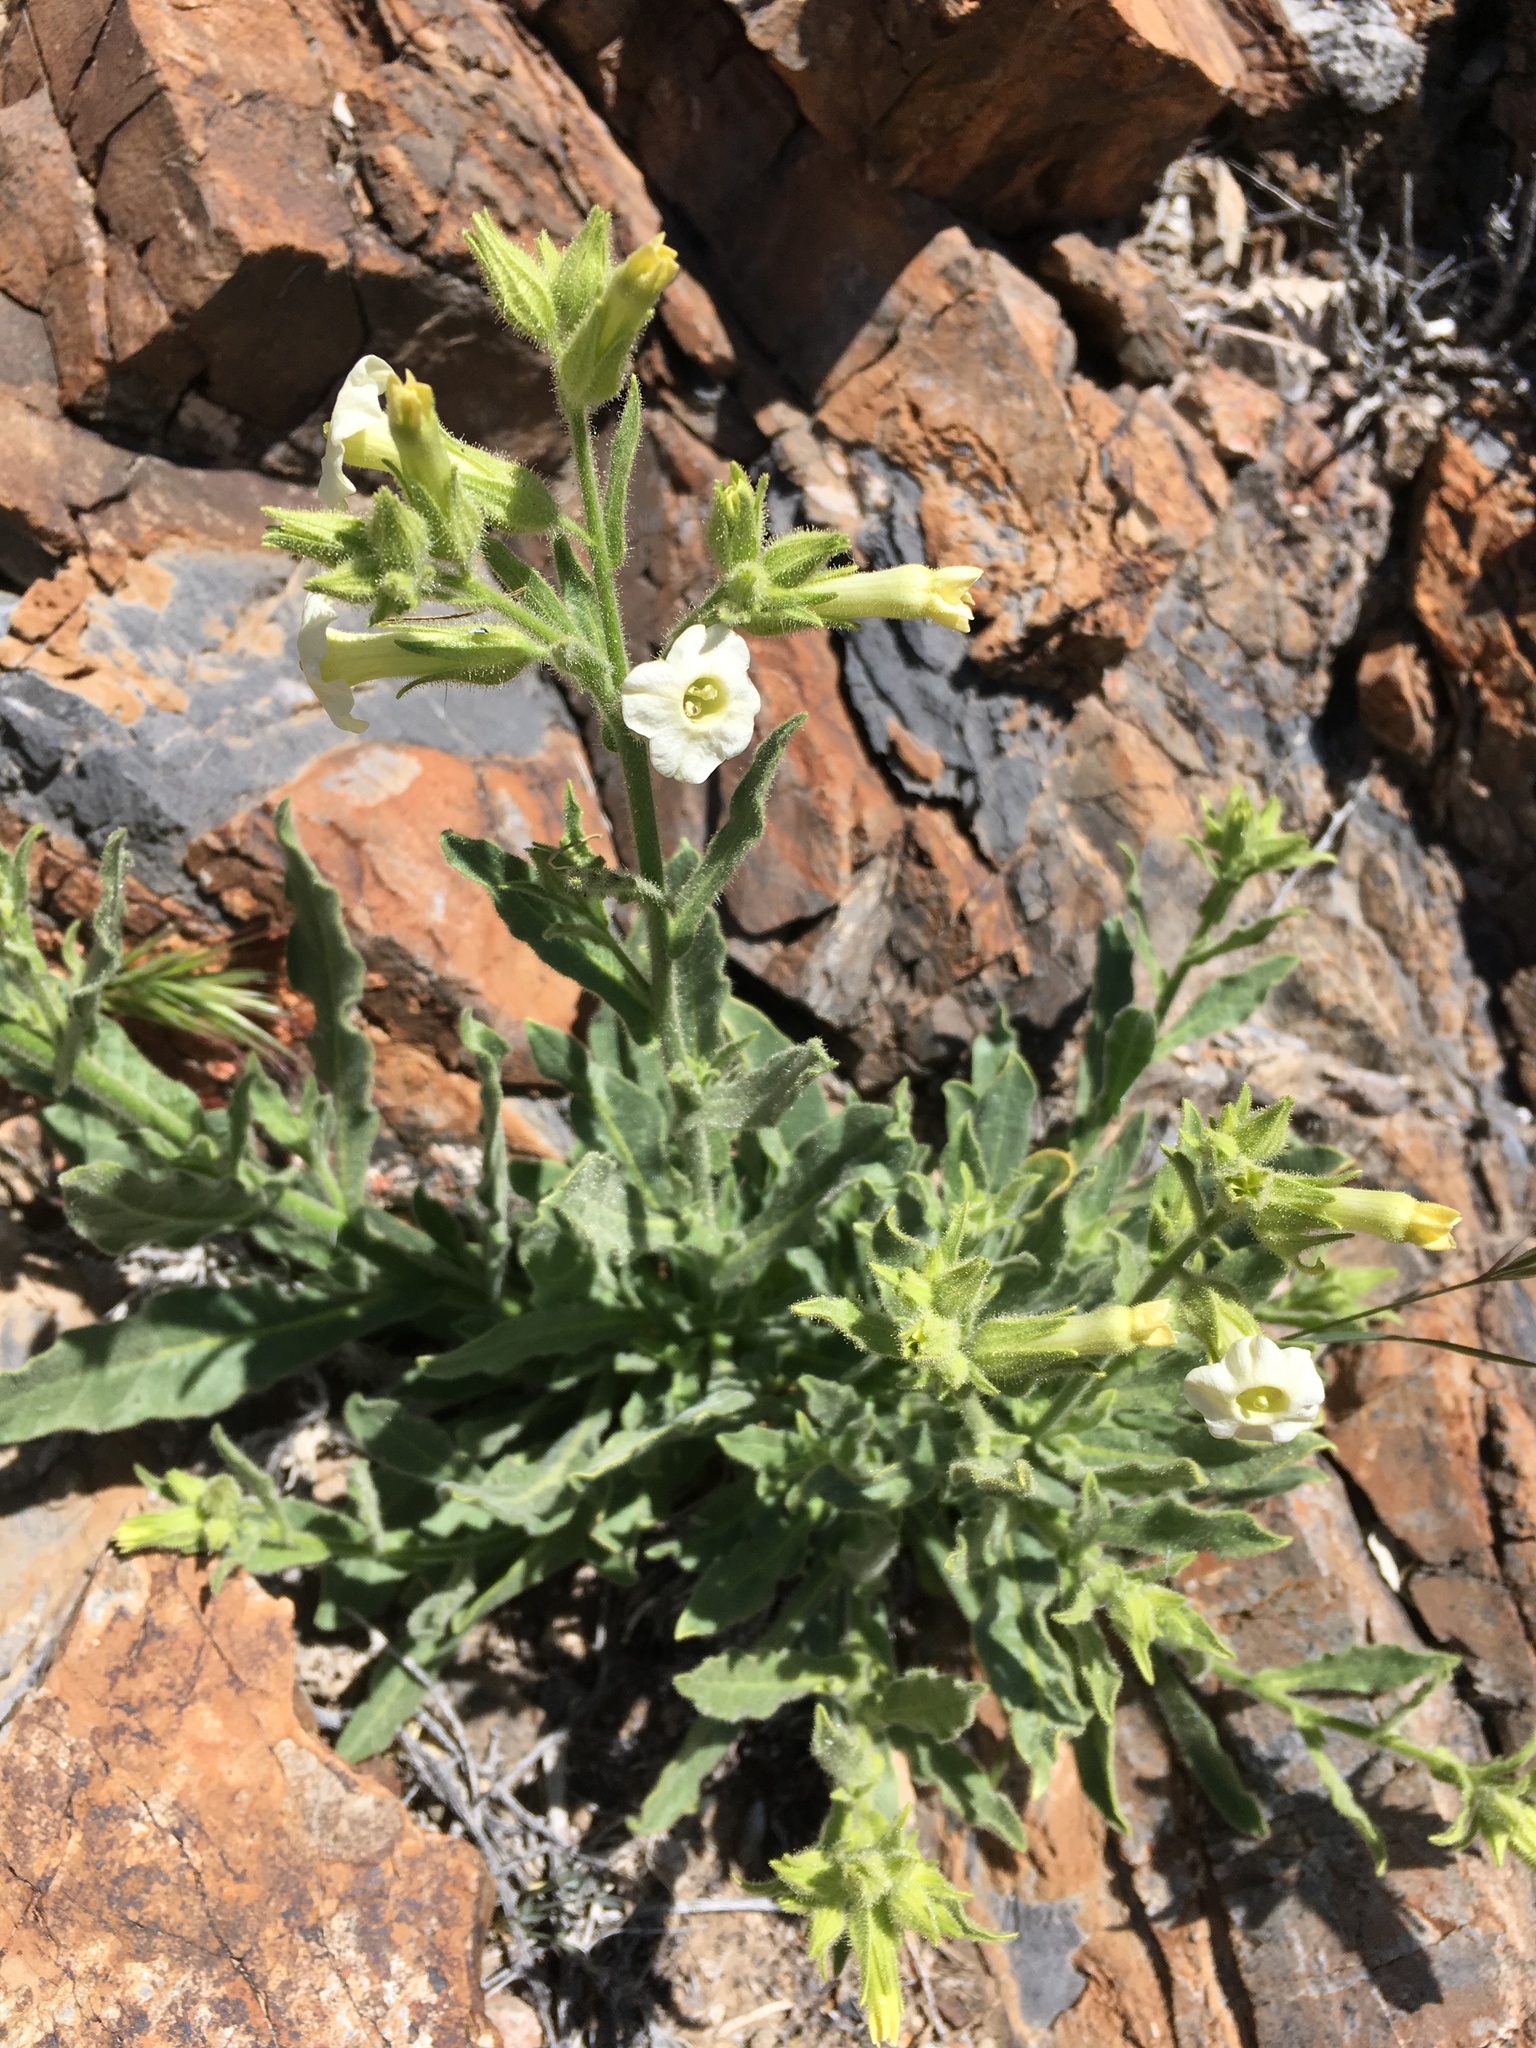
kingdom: Plantae
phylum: Tracheophyta
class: Magnoliopsida
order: Solanales
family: Solanaceae
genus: Nicotiana
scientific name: Nicotiana obtusifolia
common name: Desert tobacco
